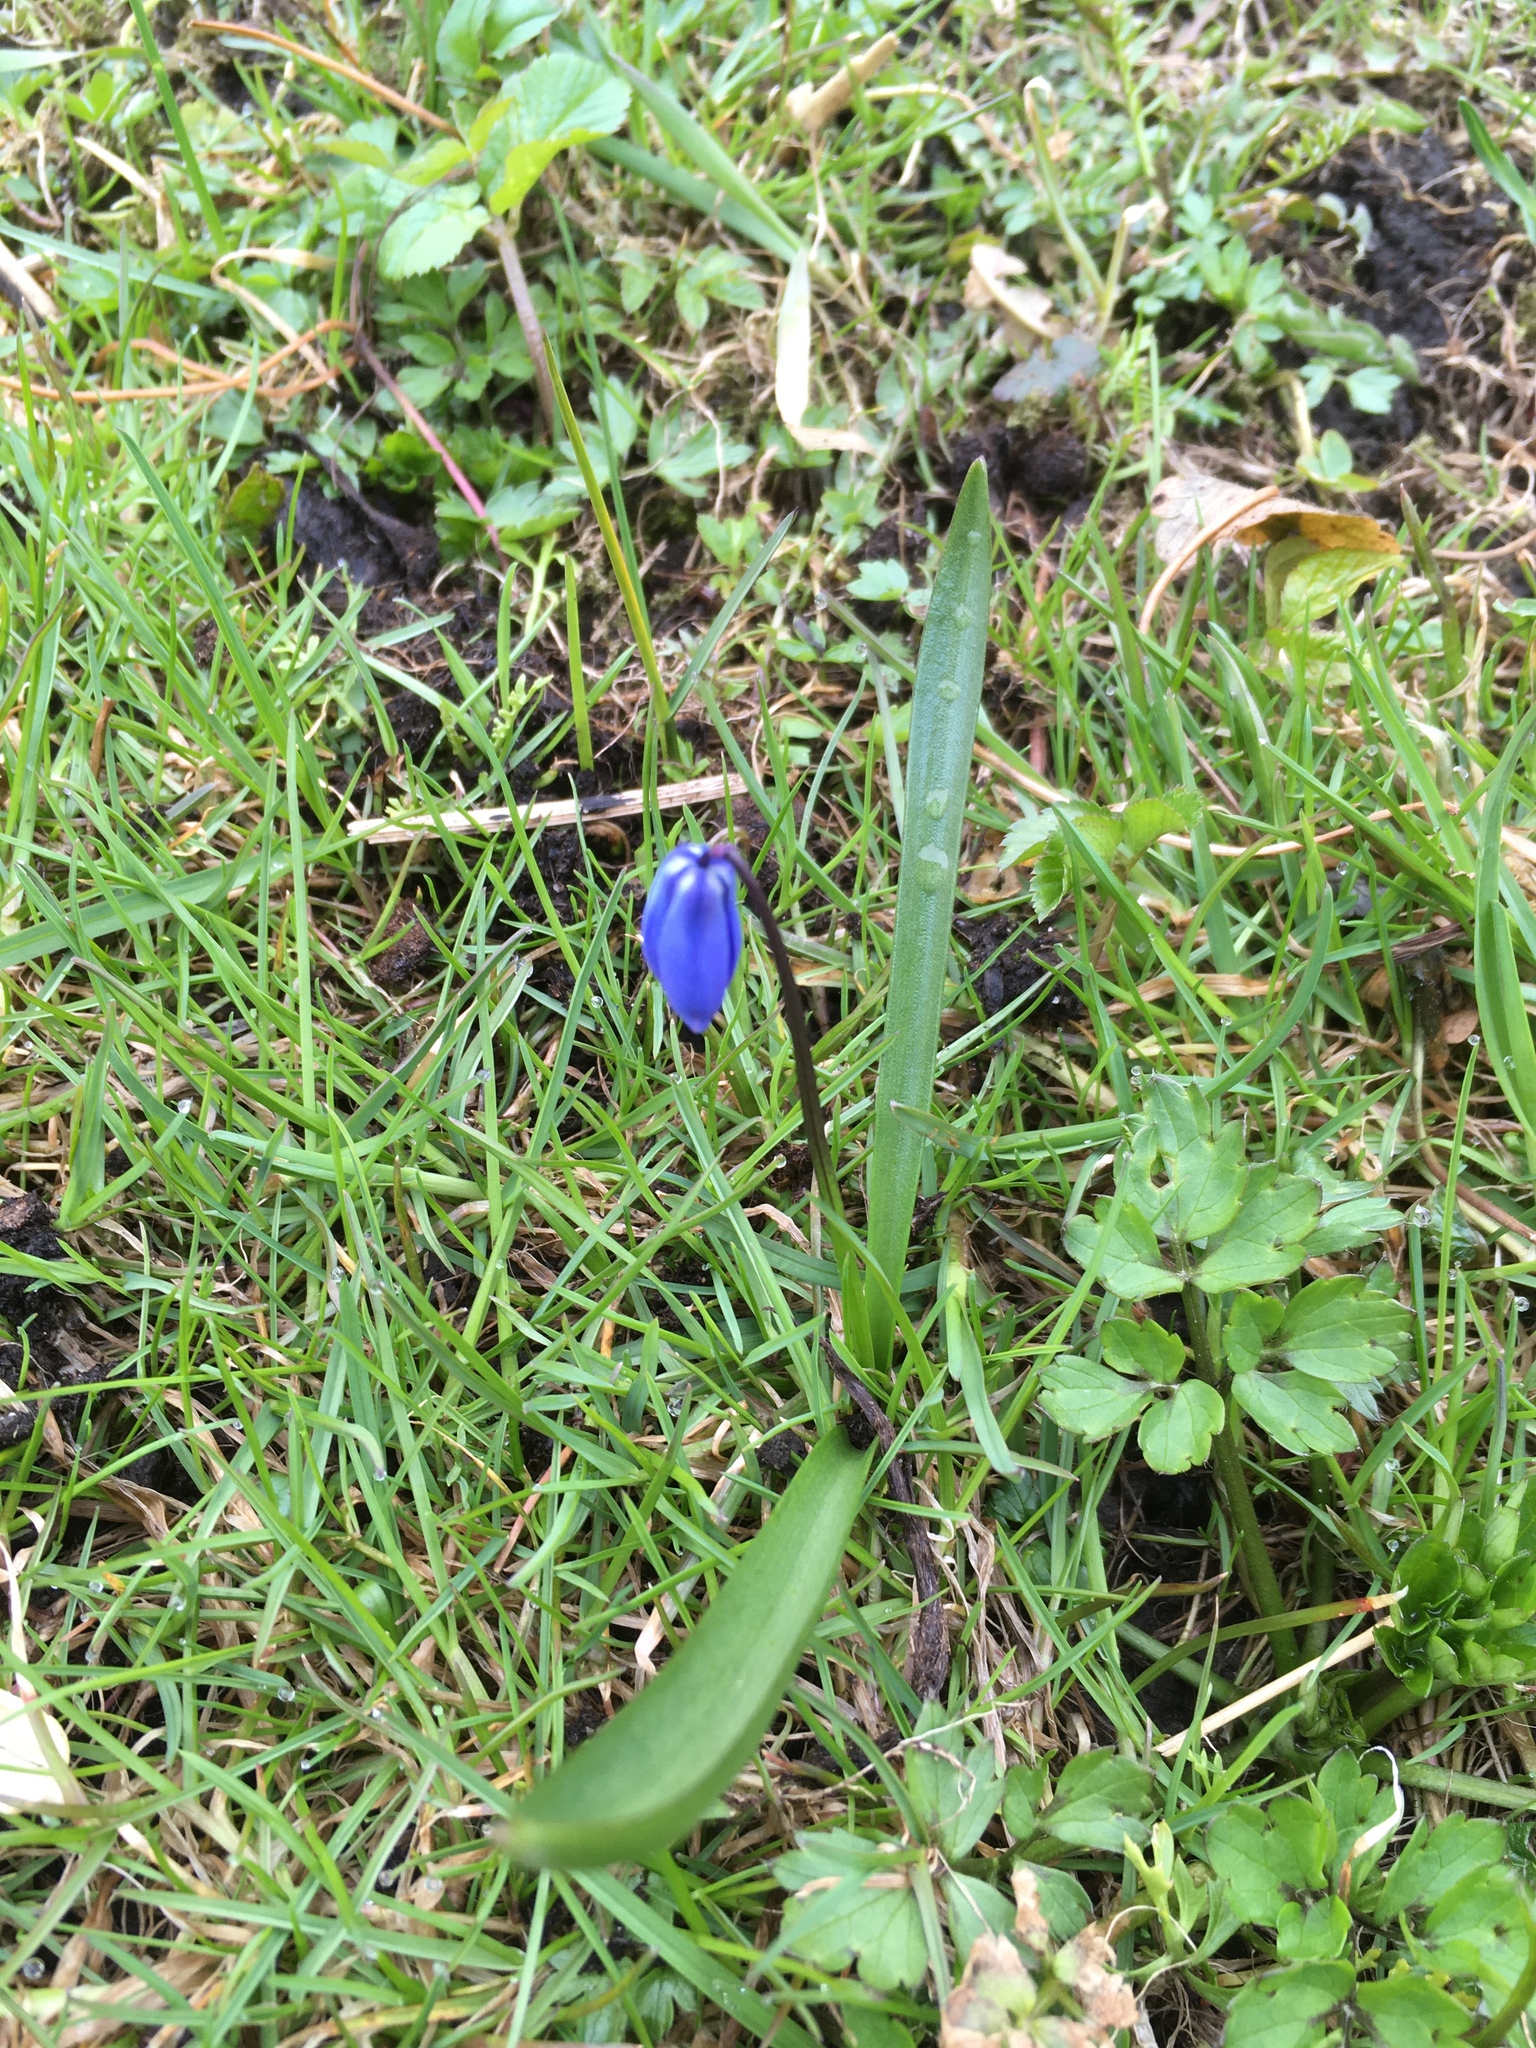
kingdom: Plantae
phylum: Tracheophyta
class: Liliopsida
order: Asparagales
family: Asparagaceae
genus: Scilla
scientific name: Scilla siberica
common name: Siberian squill
